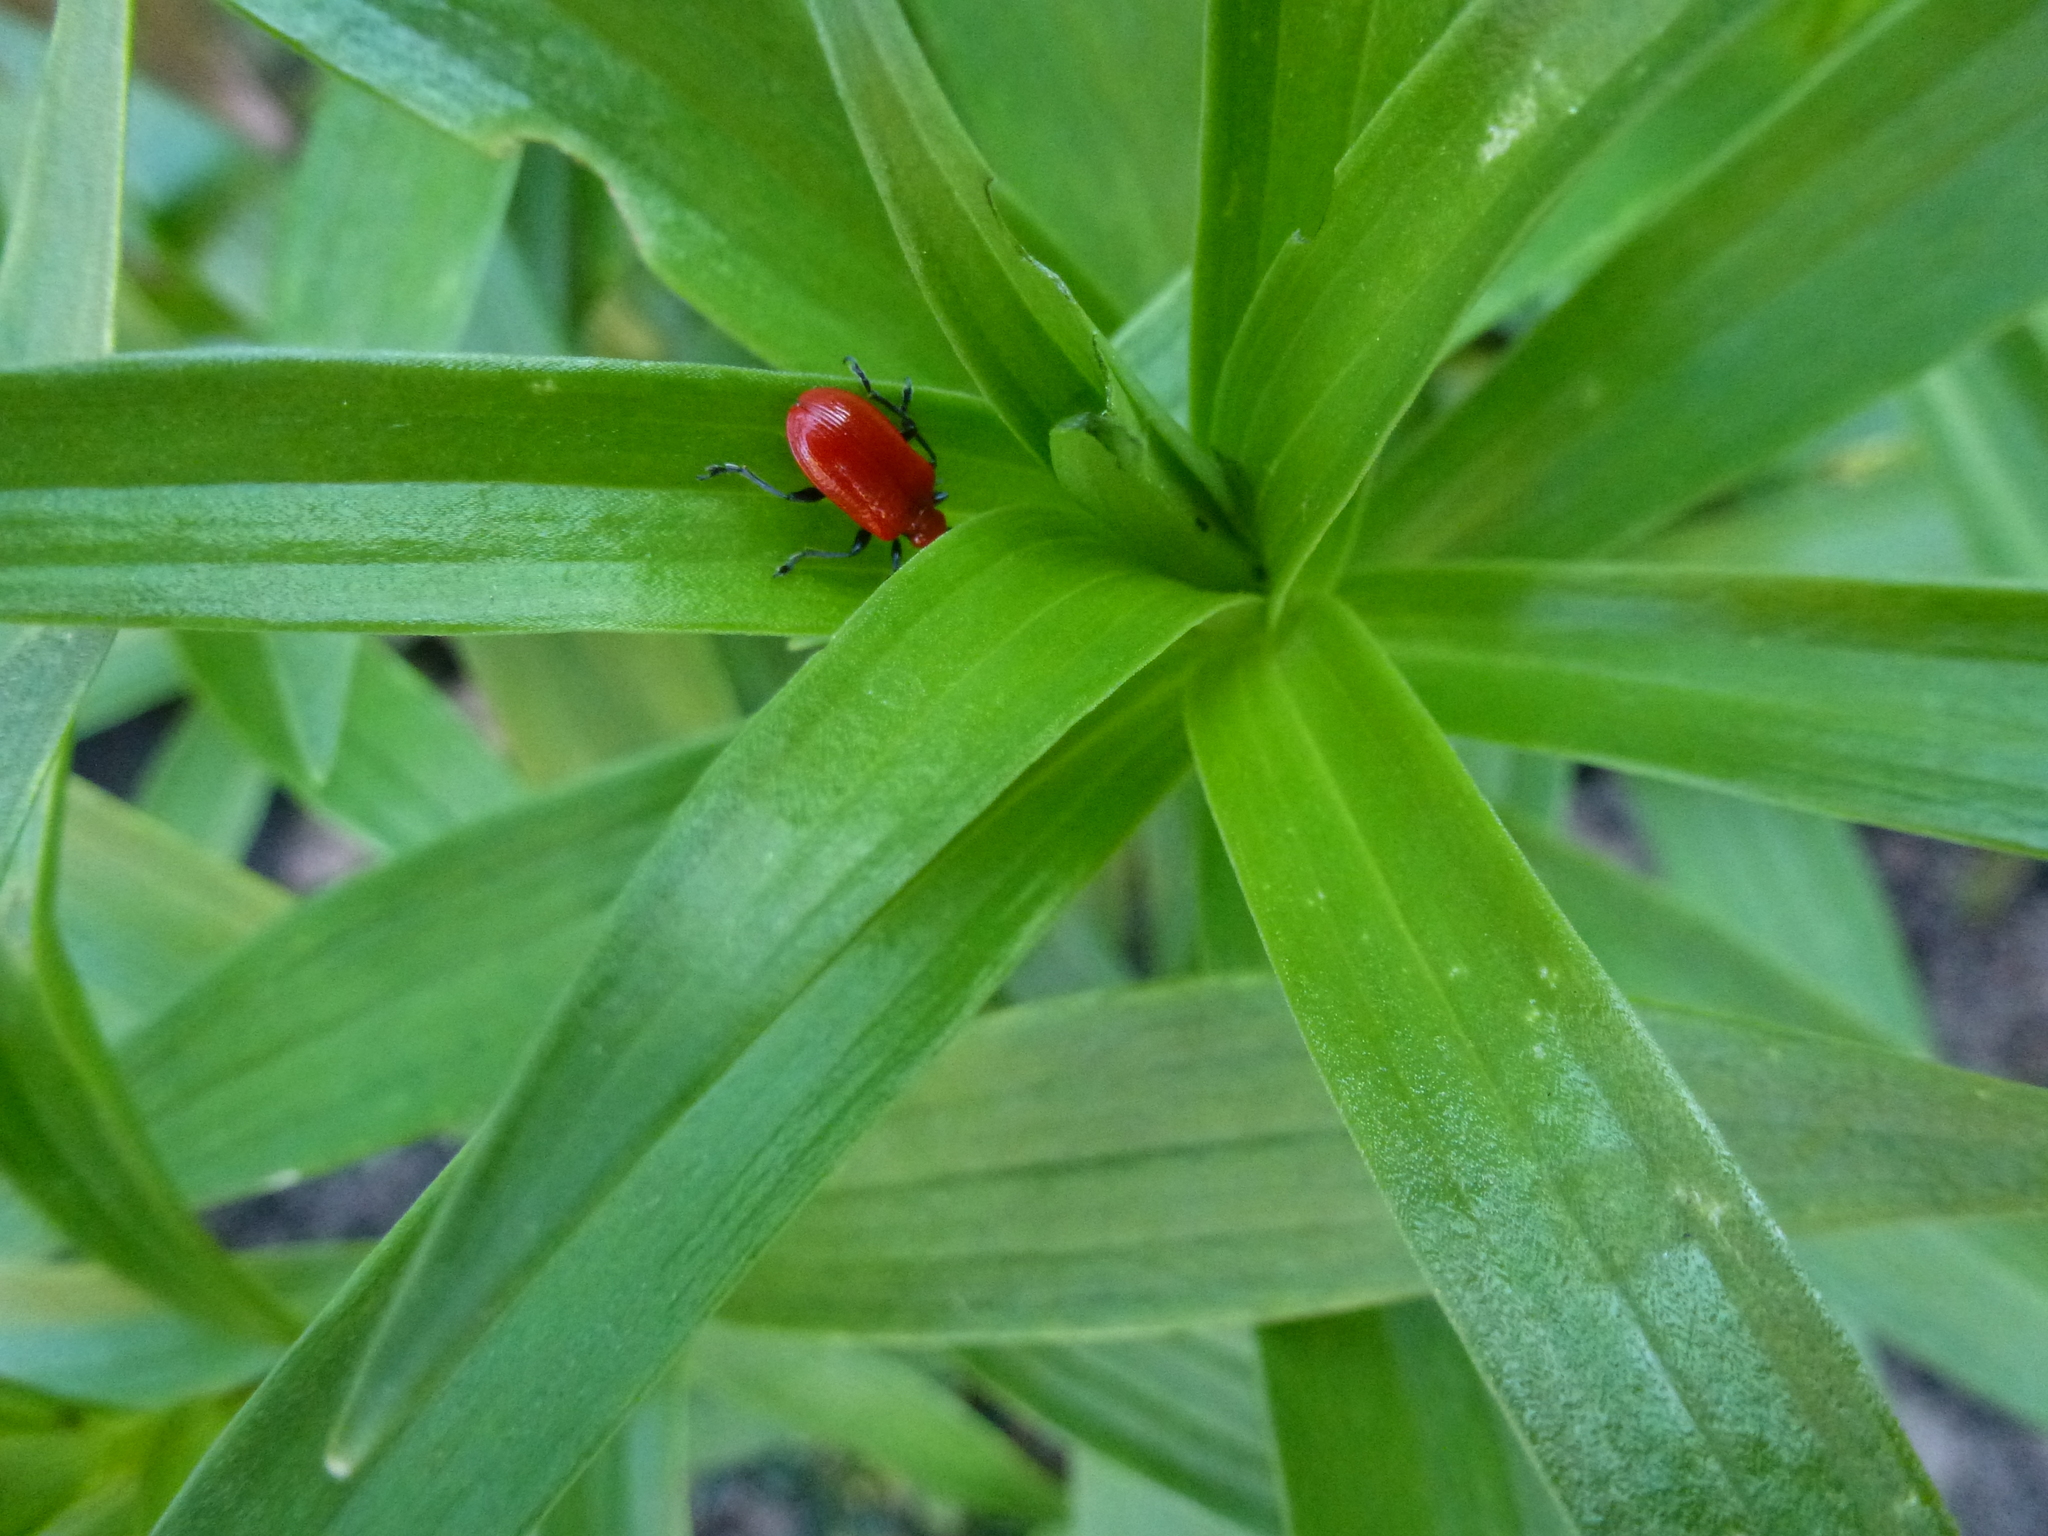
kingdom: Animalia
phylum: Arthropoda
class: Insecta
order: Coleoptera
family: Chrysomelidae
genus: Lilioceris
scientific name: Lilioceris lilii
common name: Lily beetle
